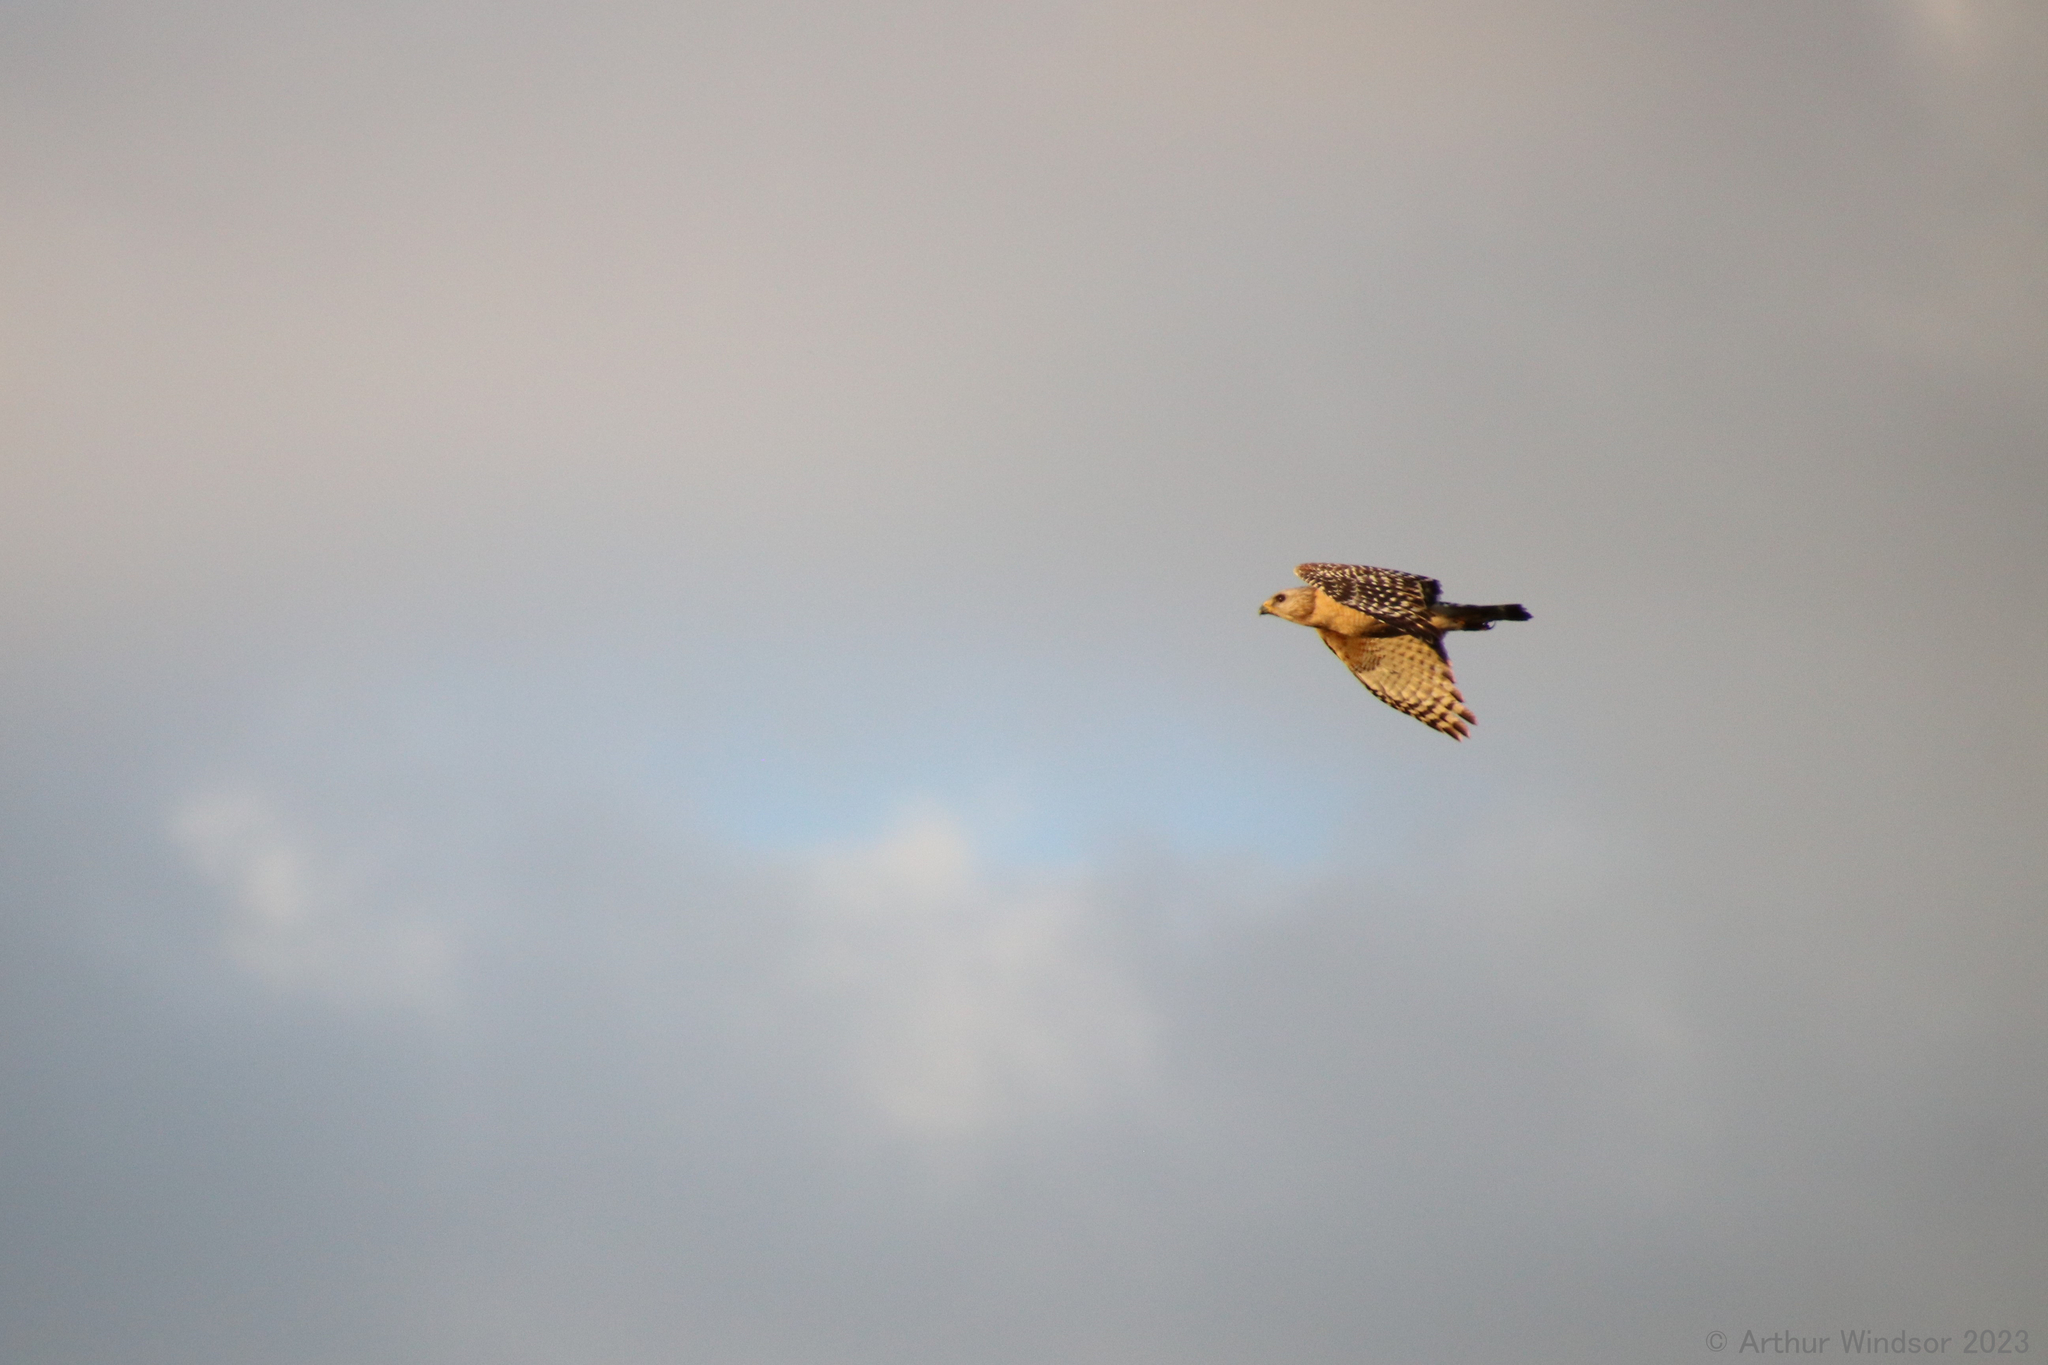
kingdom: Animalia
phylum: Chordata
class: Aves
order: Accipitriformes
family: Accipitridae
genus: Buteo
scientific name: Buteo lineatus
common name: Red-shouldered hawk
